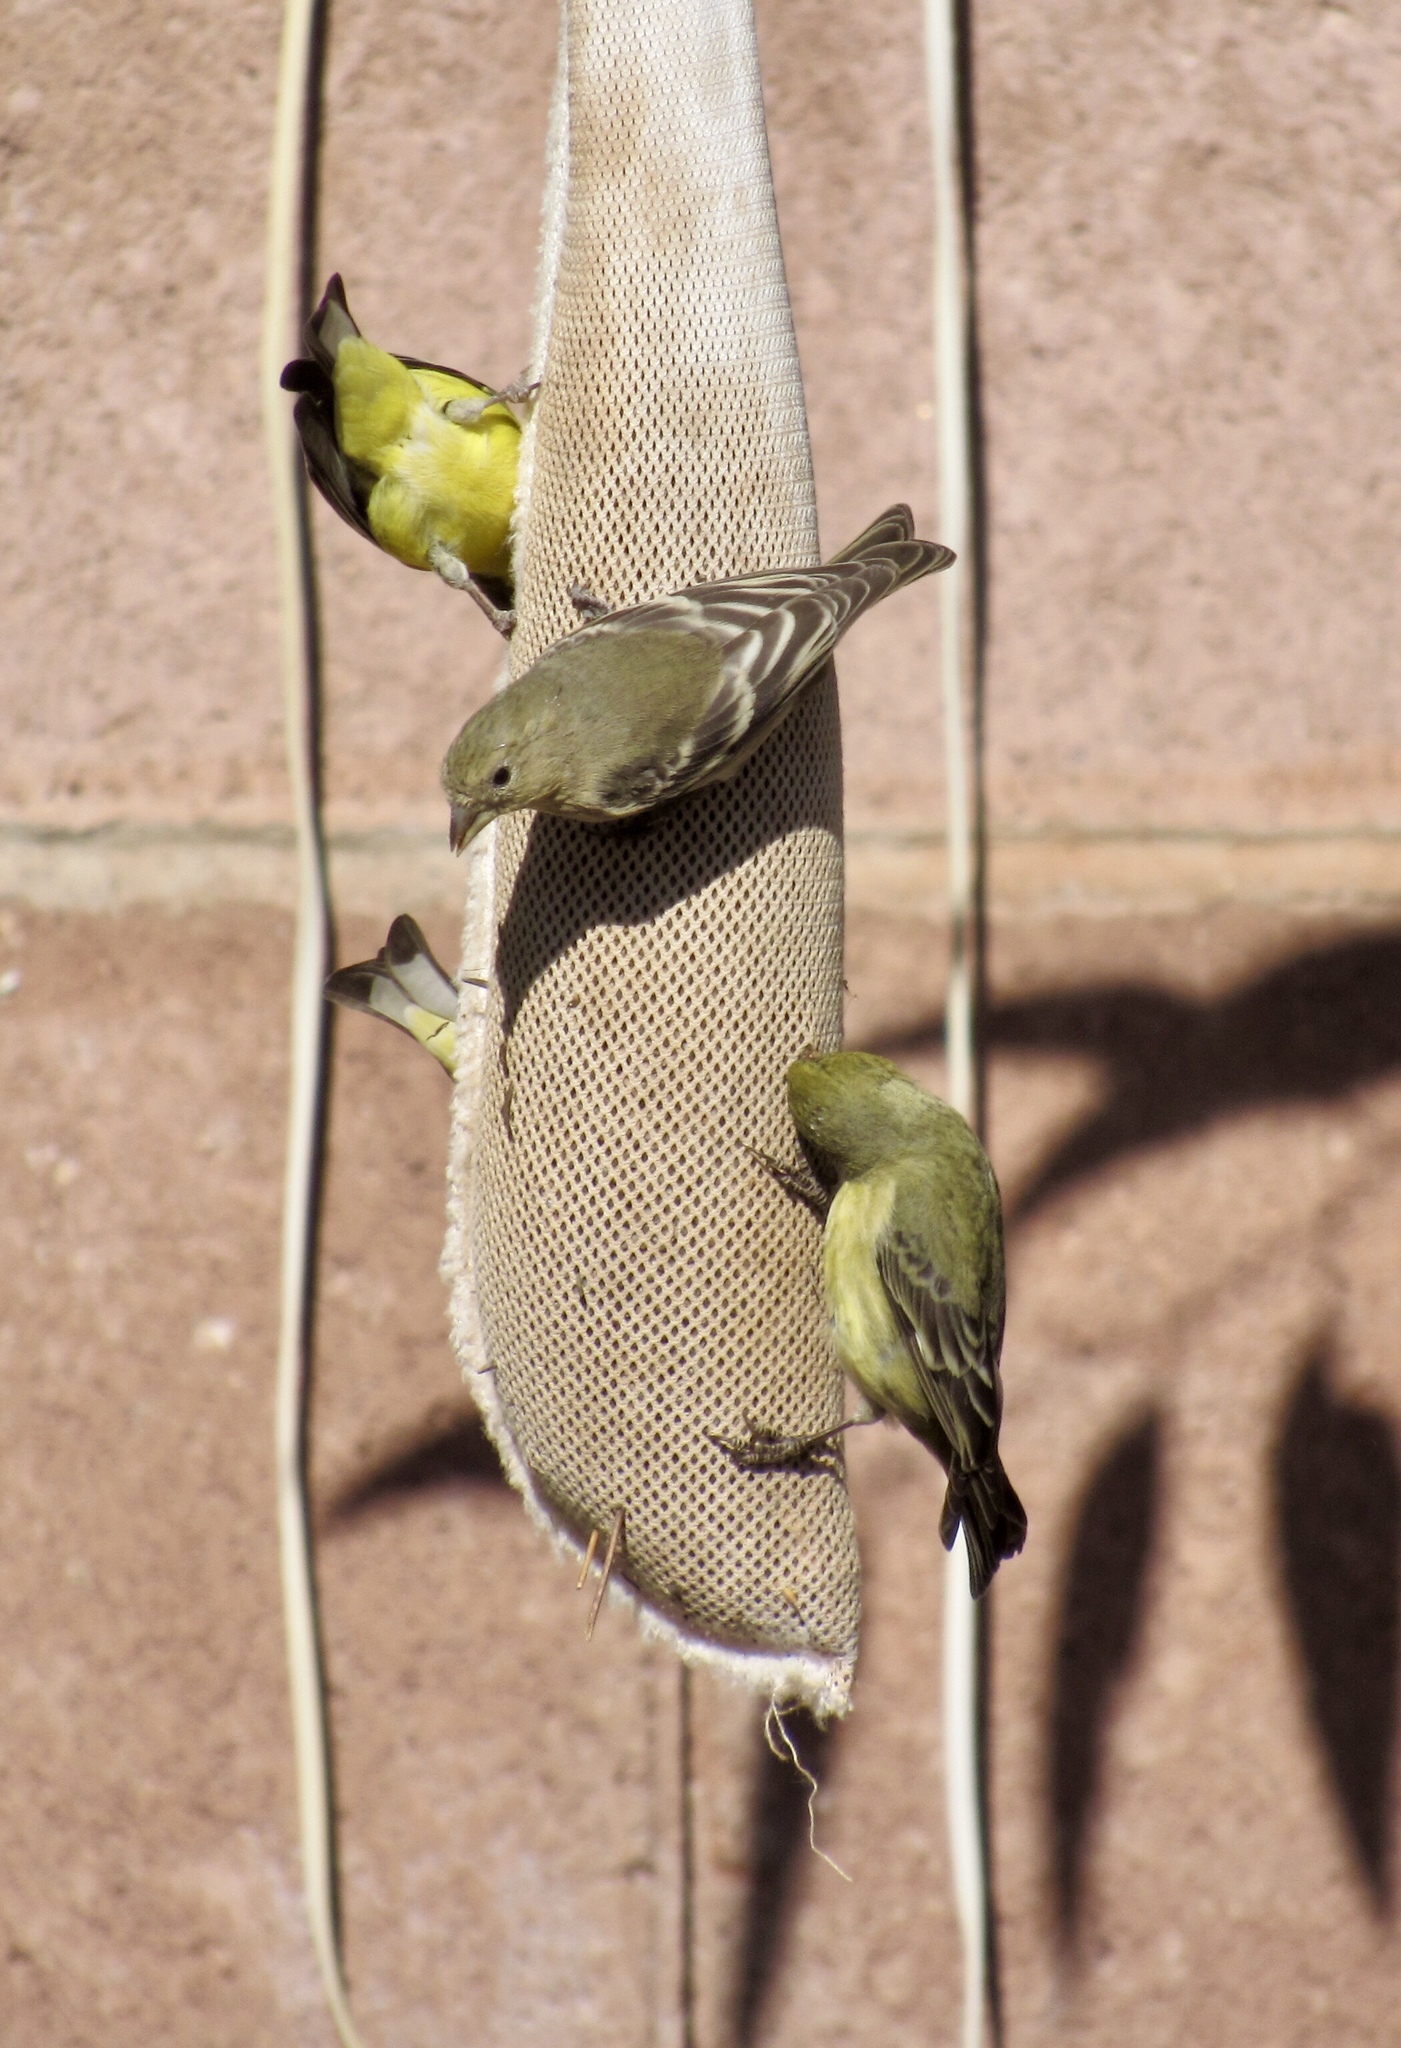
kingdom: Animalia
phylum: Chordata
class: Aves
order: Passeriformes
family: Fringillidae
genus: Spinus
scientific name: Spinus psaltria
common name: Lesser goldfinch
